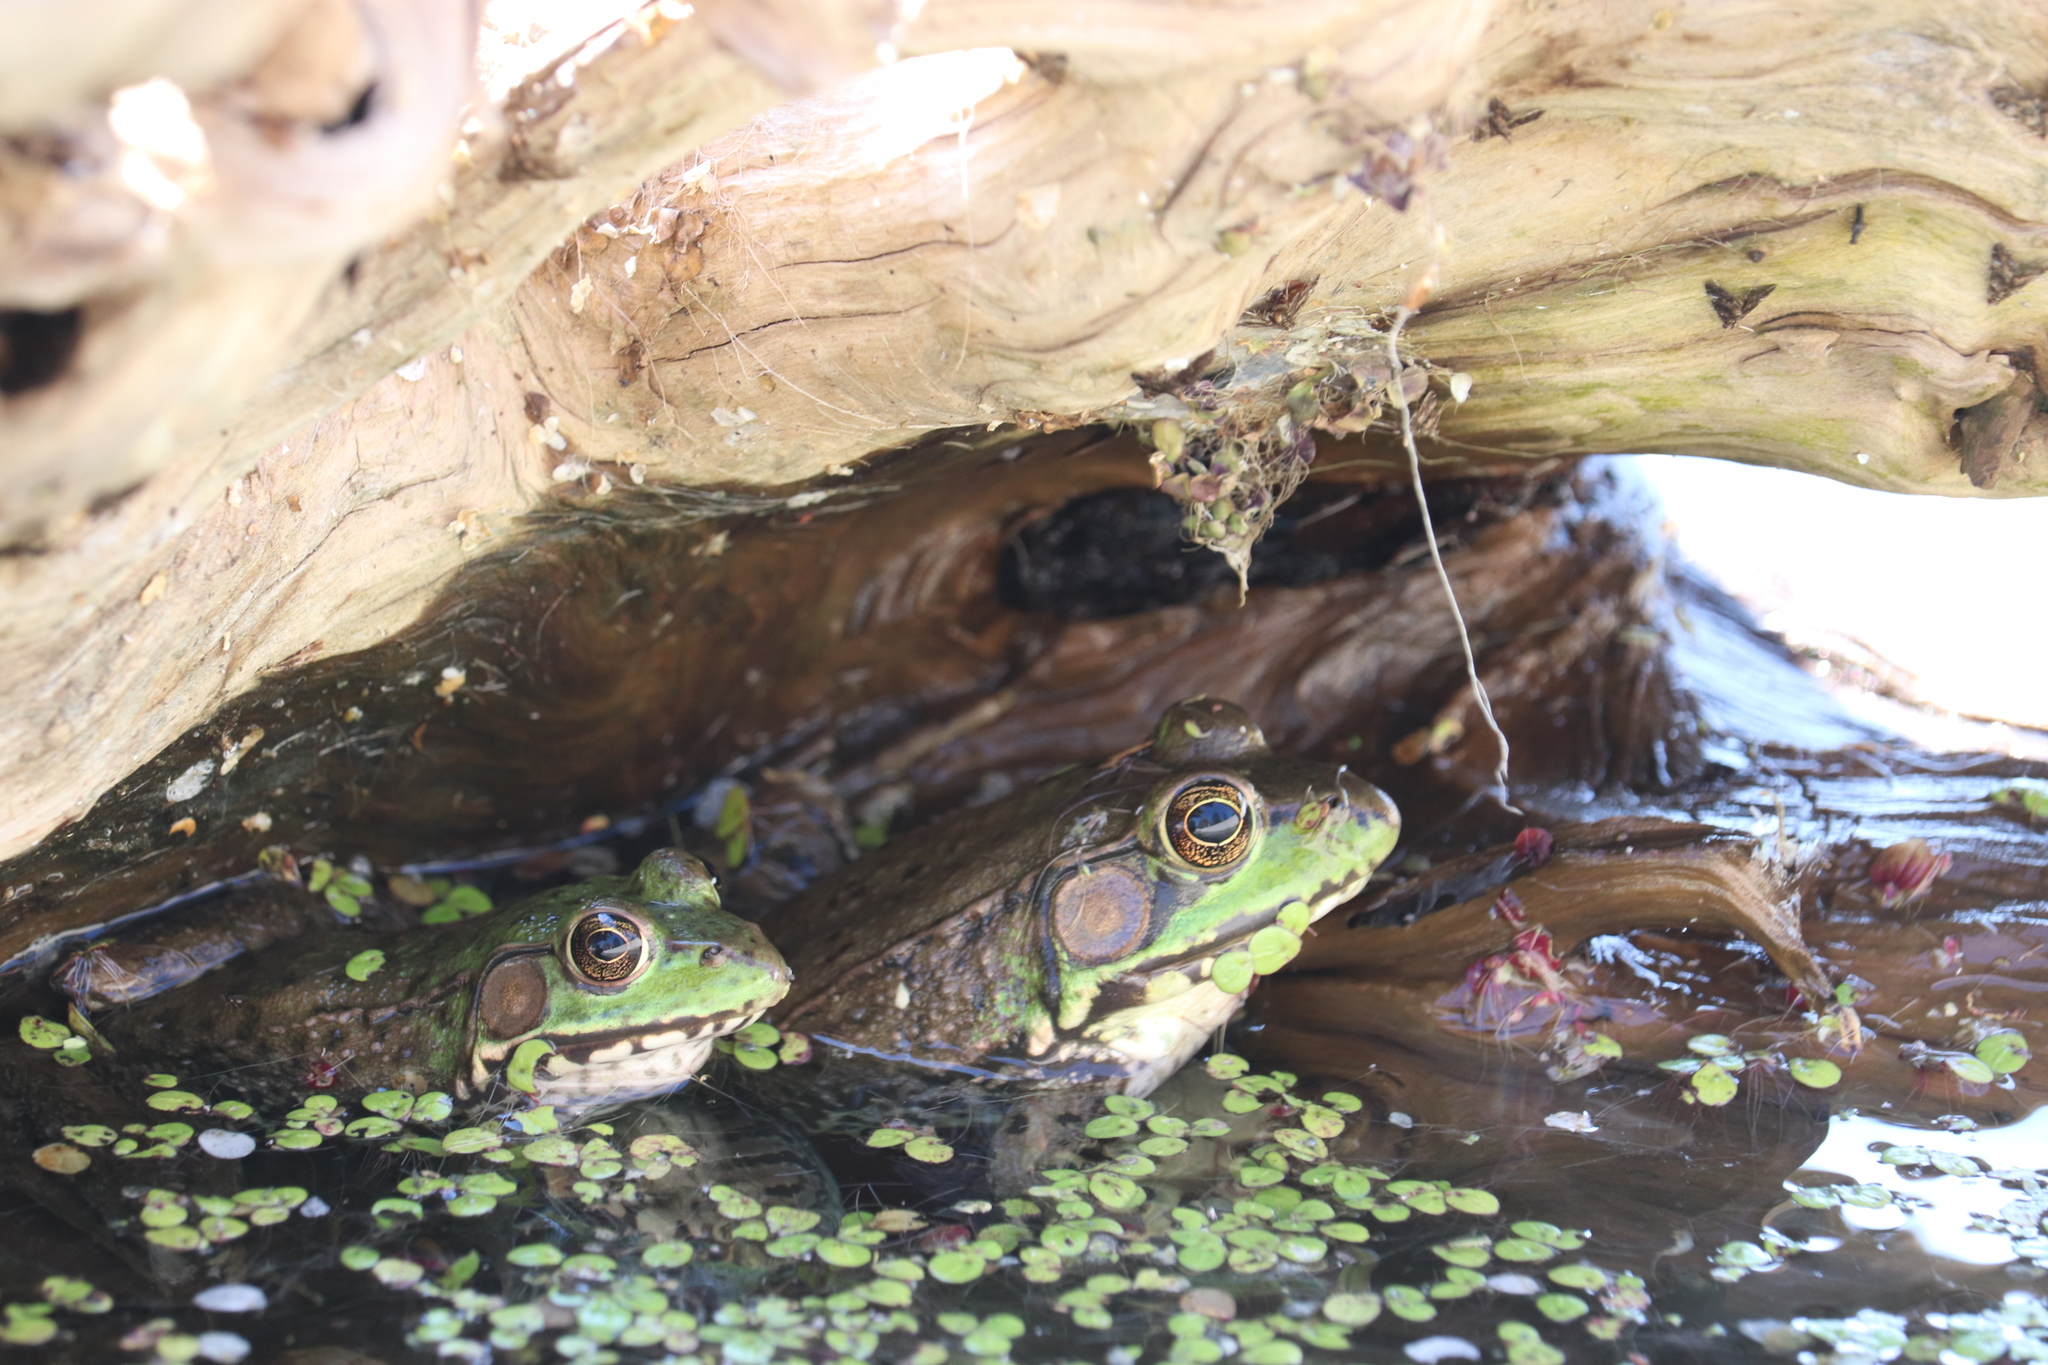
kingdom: Animalia
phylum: Chordata
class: Amphibia
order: Anura
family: Ranidae
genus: Lithobates
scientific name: Lithobates clamitans
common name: Green frog
